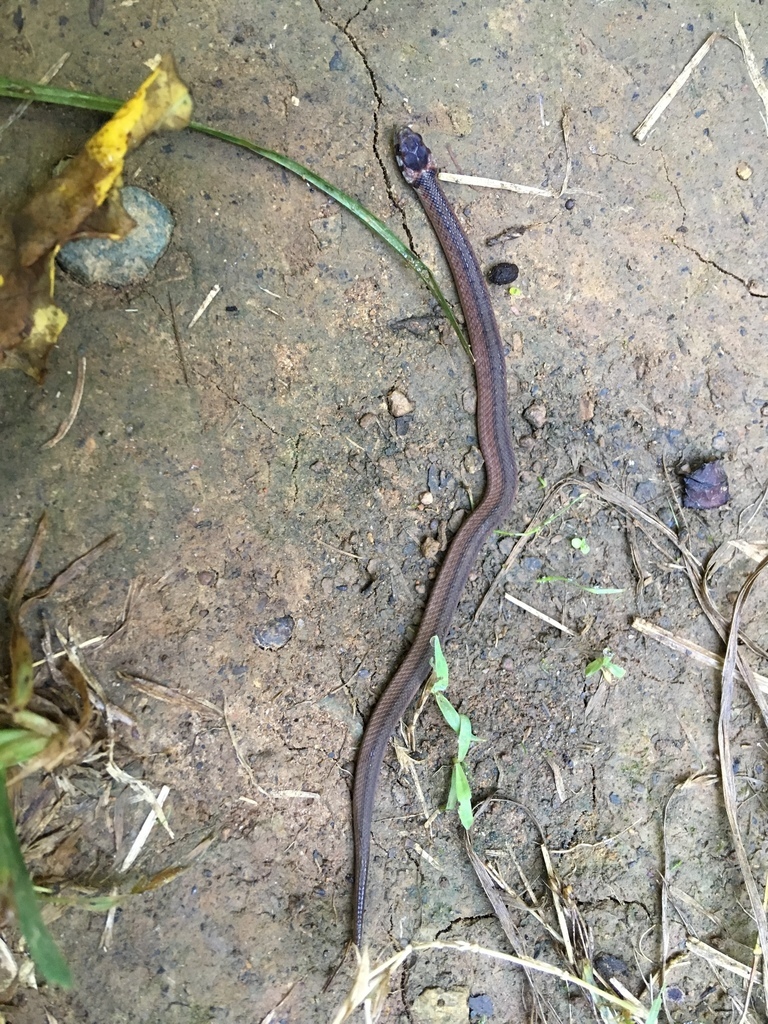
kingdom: Animalia
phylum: Chordata
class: Squamata
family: Colubridae
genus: Storeria
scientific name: Storeria dekayi
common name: (dekay’s) brown snake
